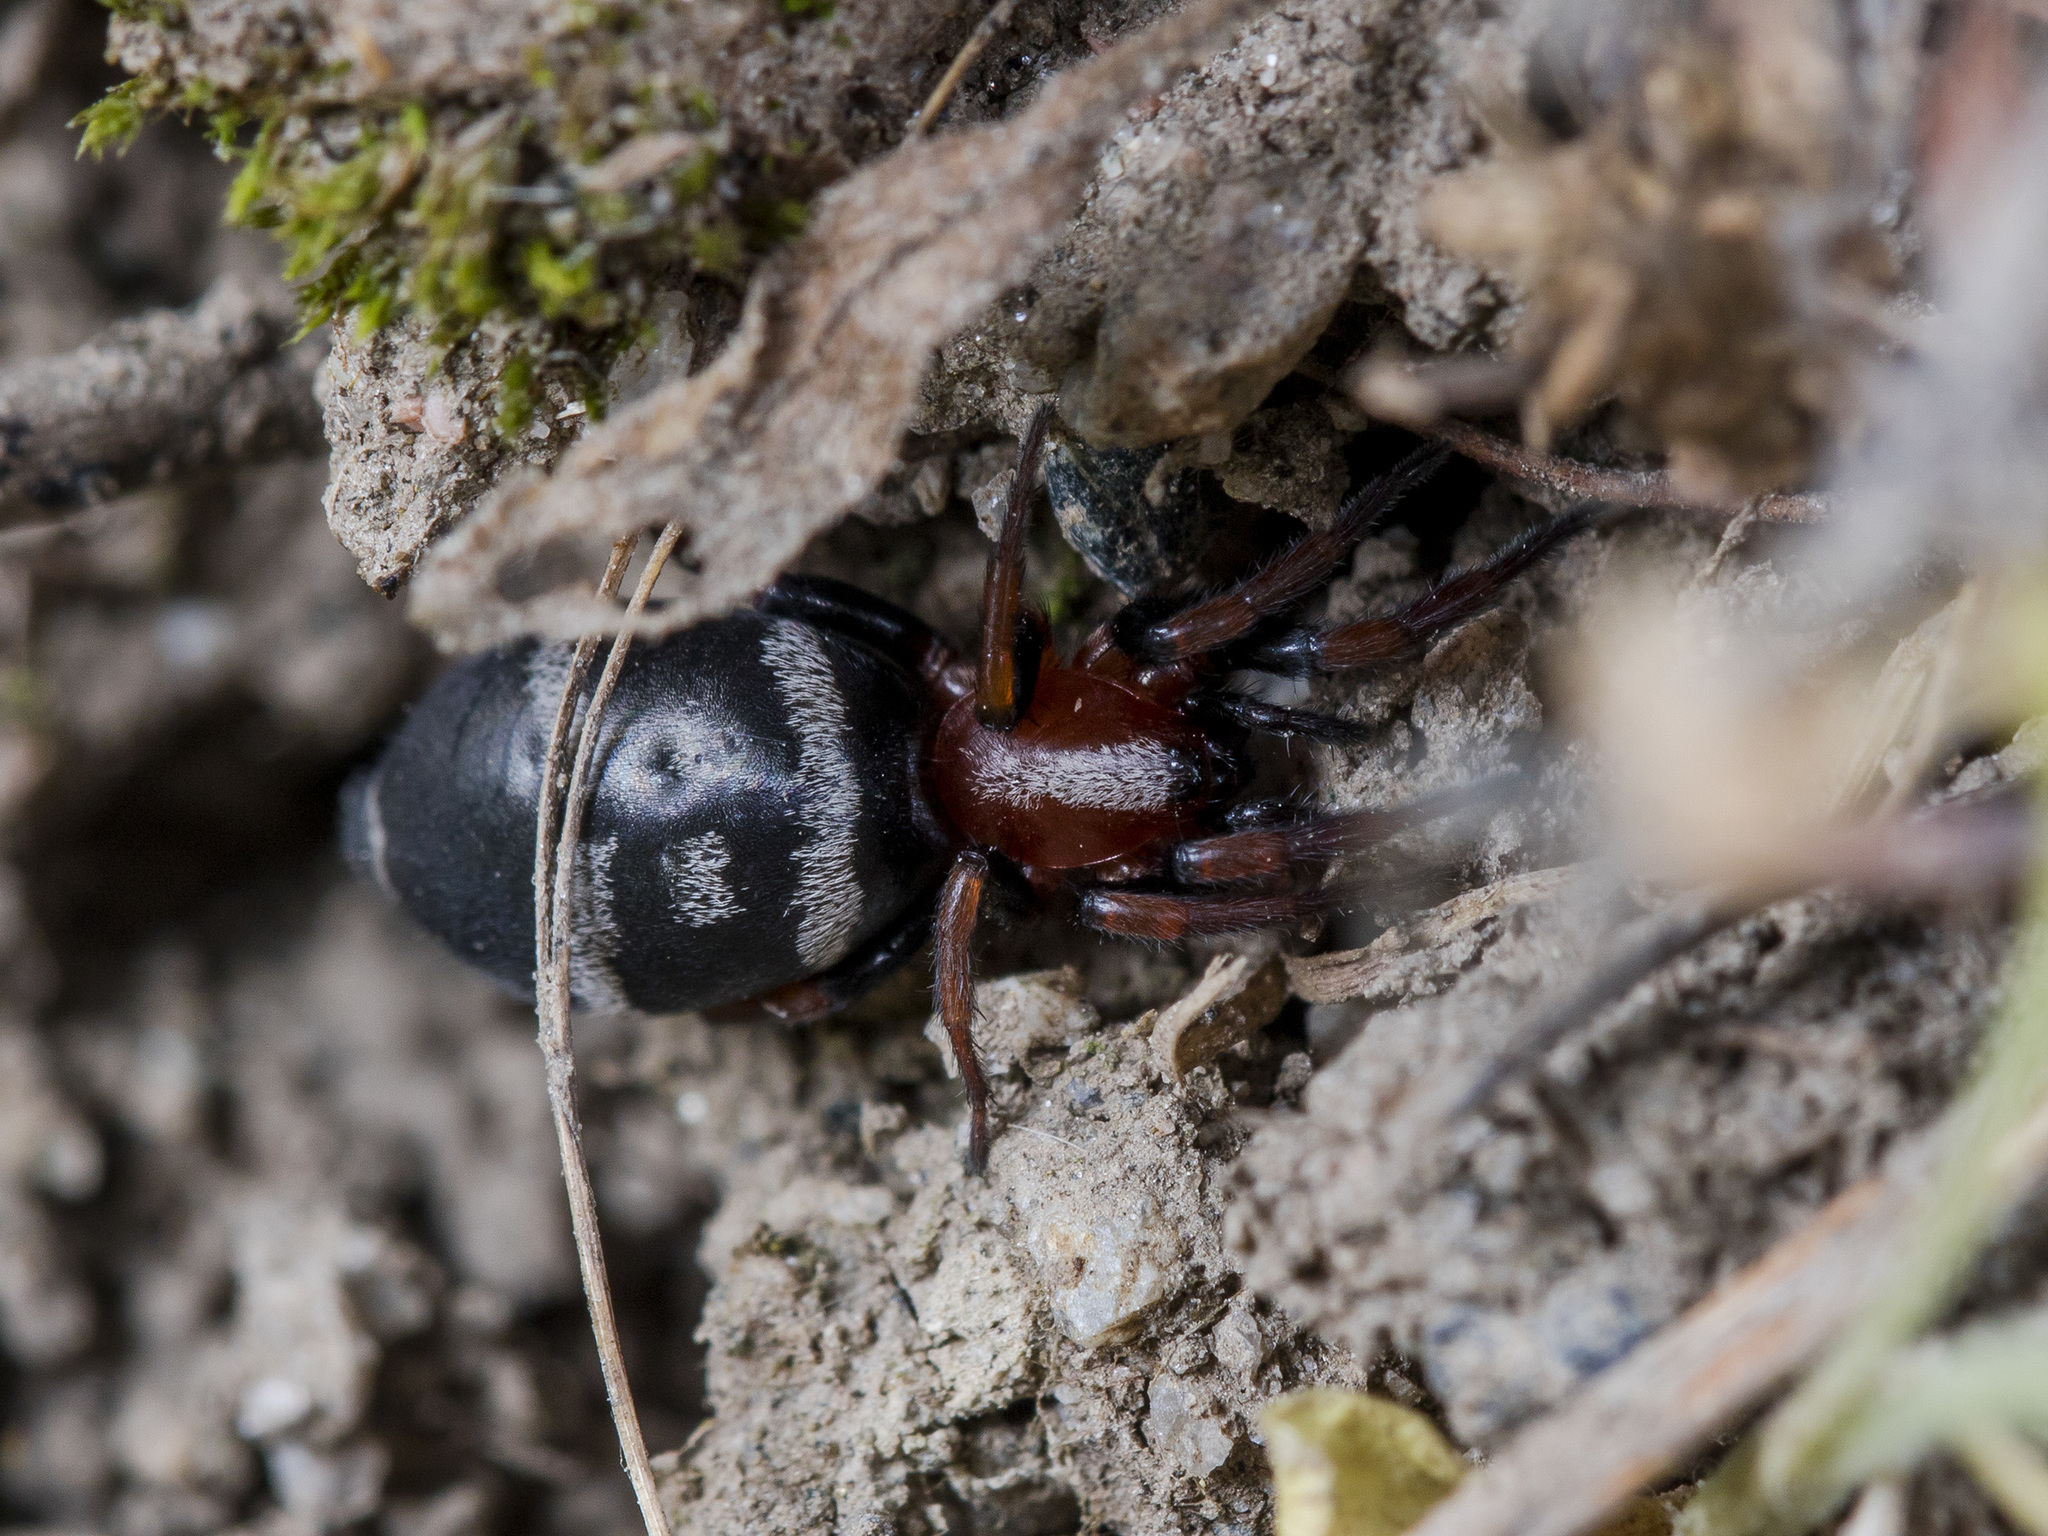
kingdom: Animalia
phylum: Arthropoda
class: Arachnida
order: Araneae
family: Gnaphosidae
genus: Poecilochroa
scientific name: Poecilochroa variana
